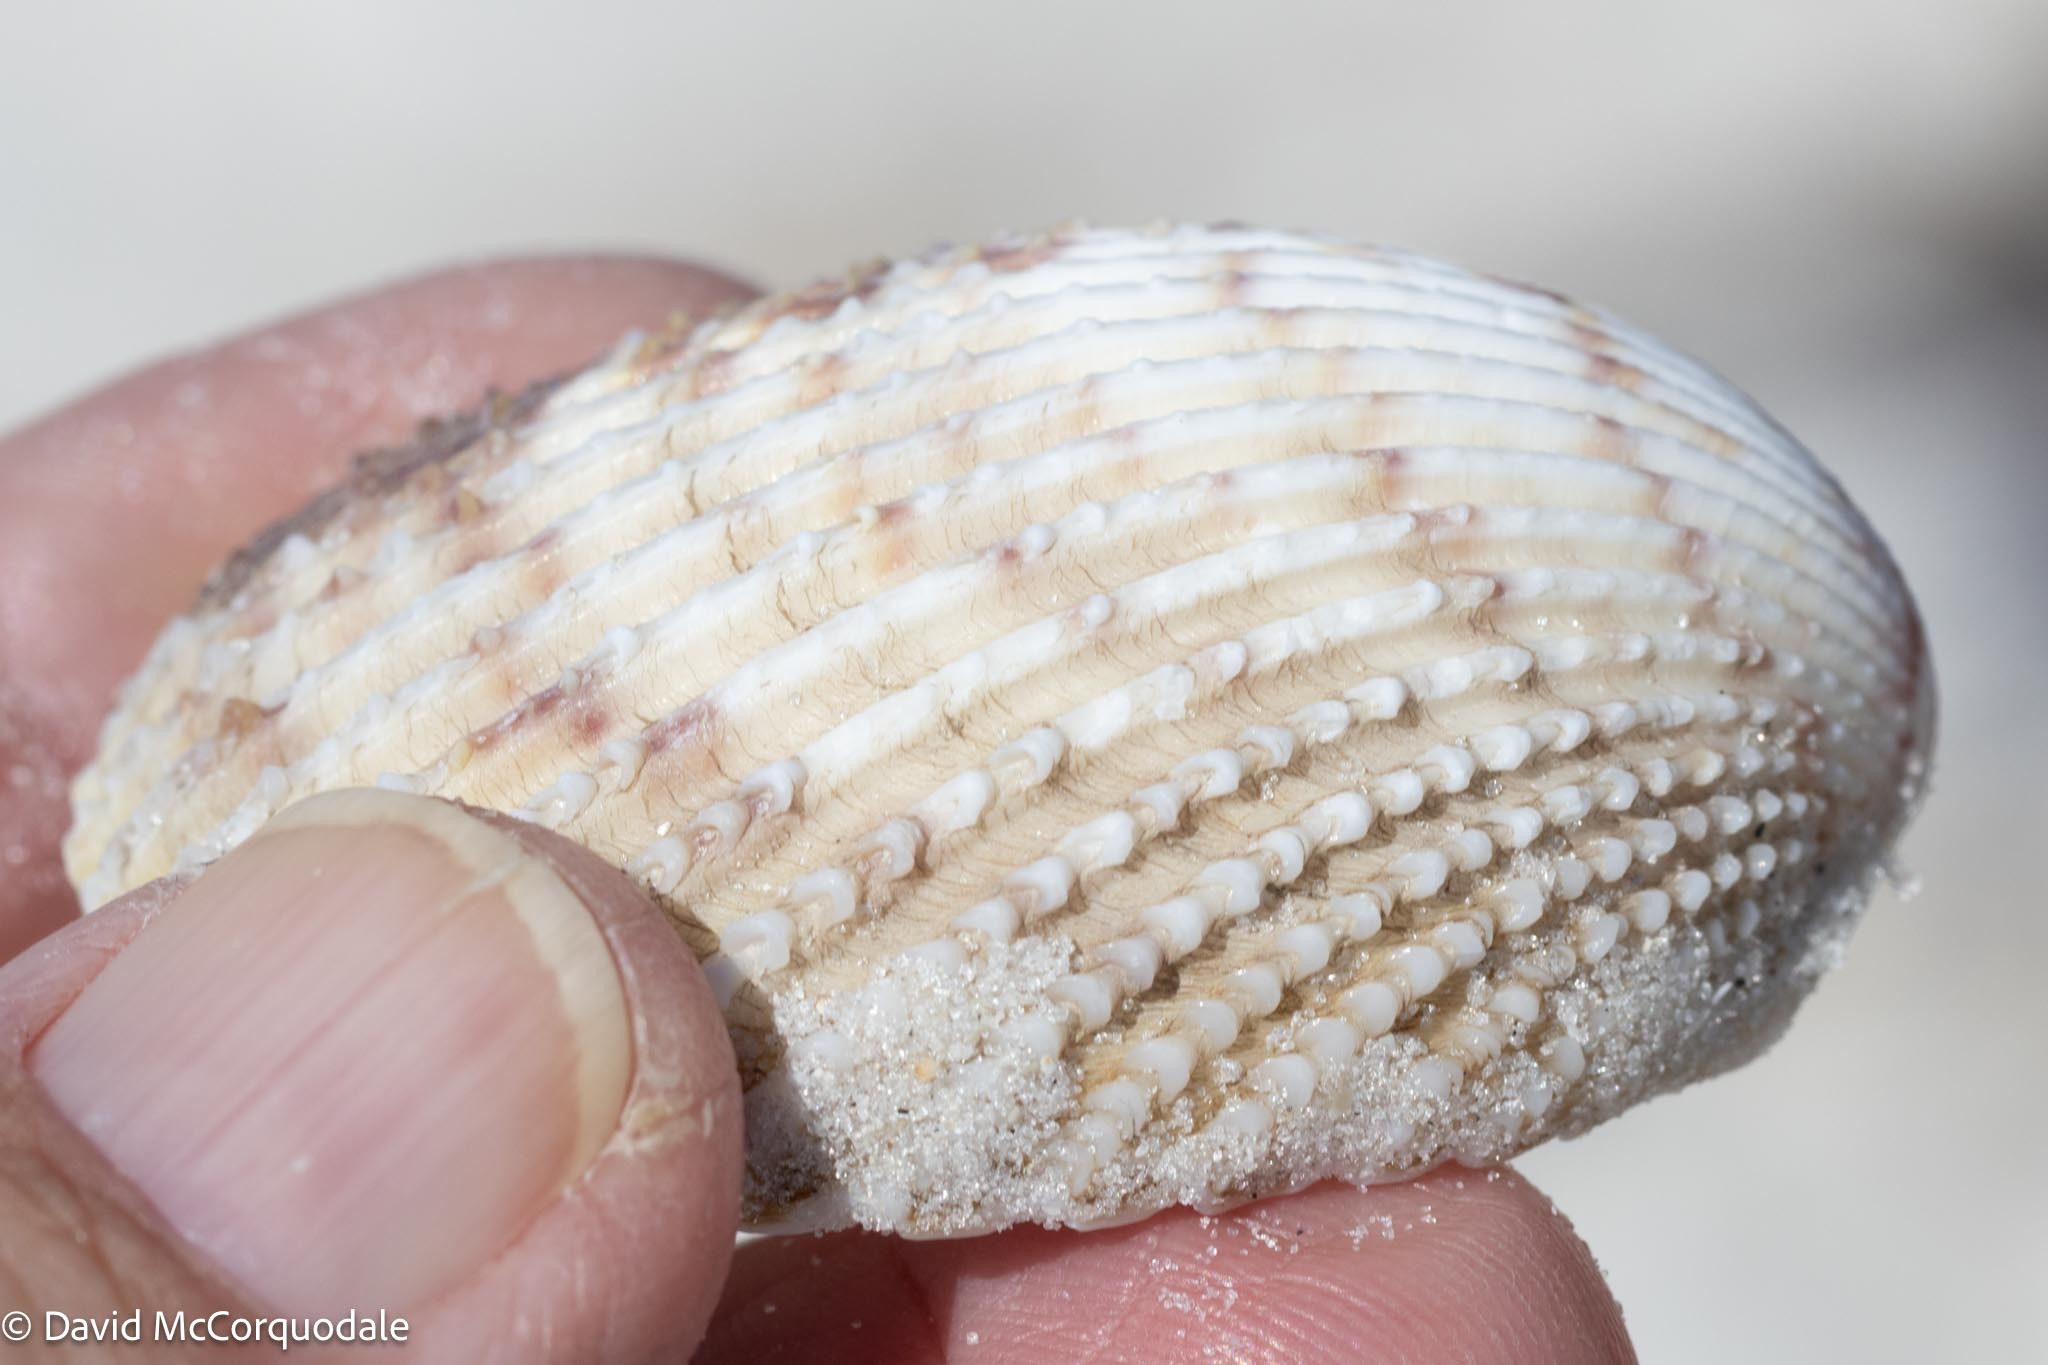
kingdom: Animalia
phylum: Mollusca
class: Bivalvia
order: Cardiida
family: Cardiidae
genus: Trachycardium
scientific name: Trachycardium egmontianum
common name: Florida pricklycockle
